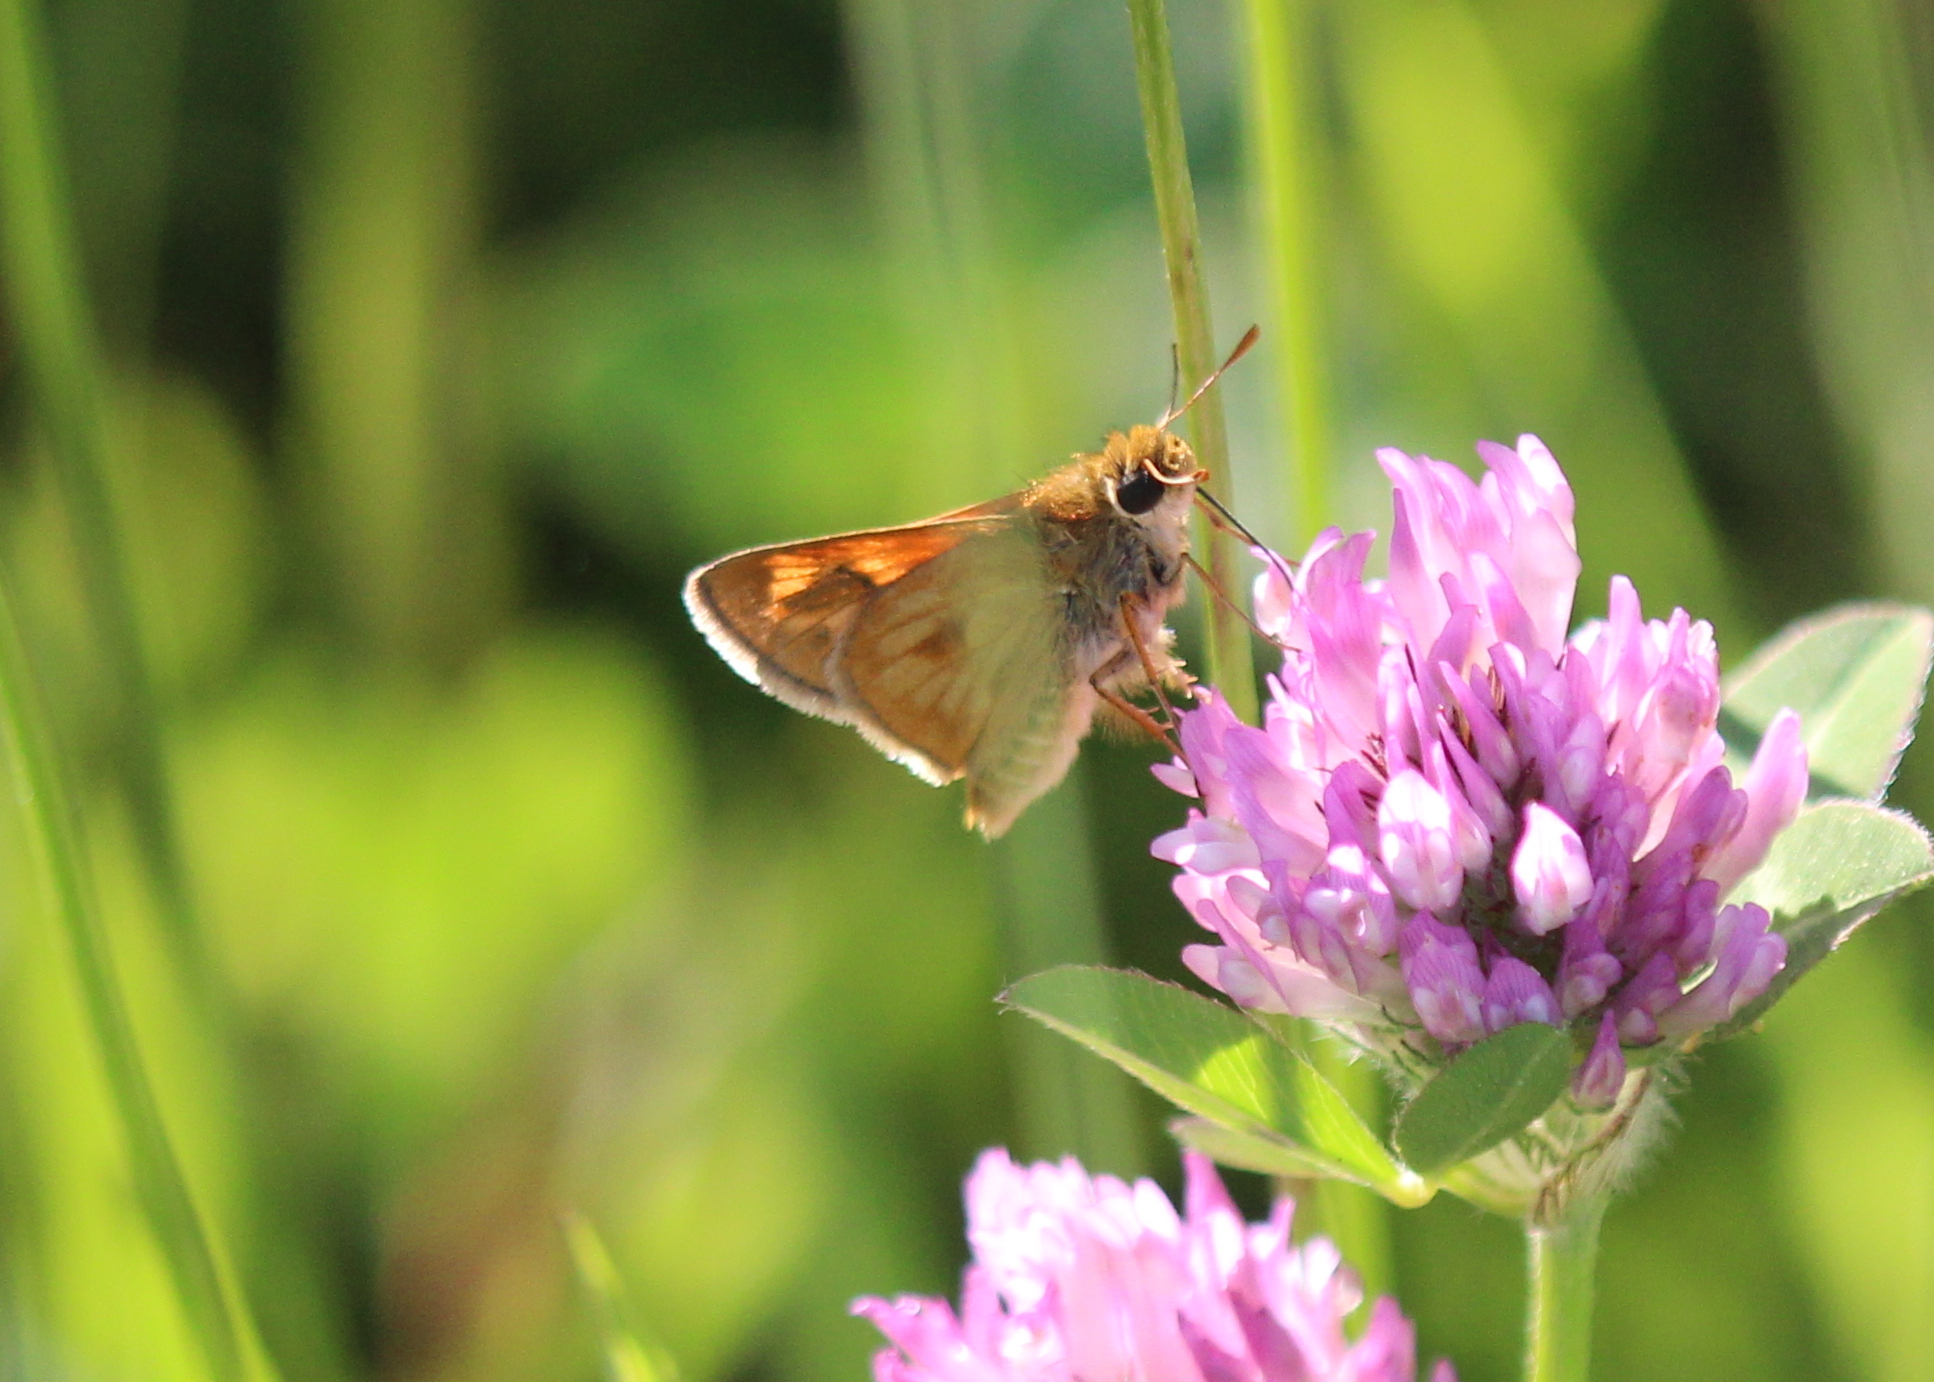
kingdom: Animalia
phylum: Arthropoda
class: Insecta
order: Lepidoptera
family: Hesperiidae
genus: Polites
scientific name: Polites mystic
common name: Long dash
